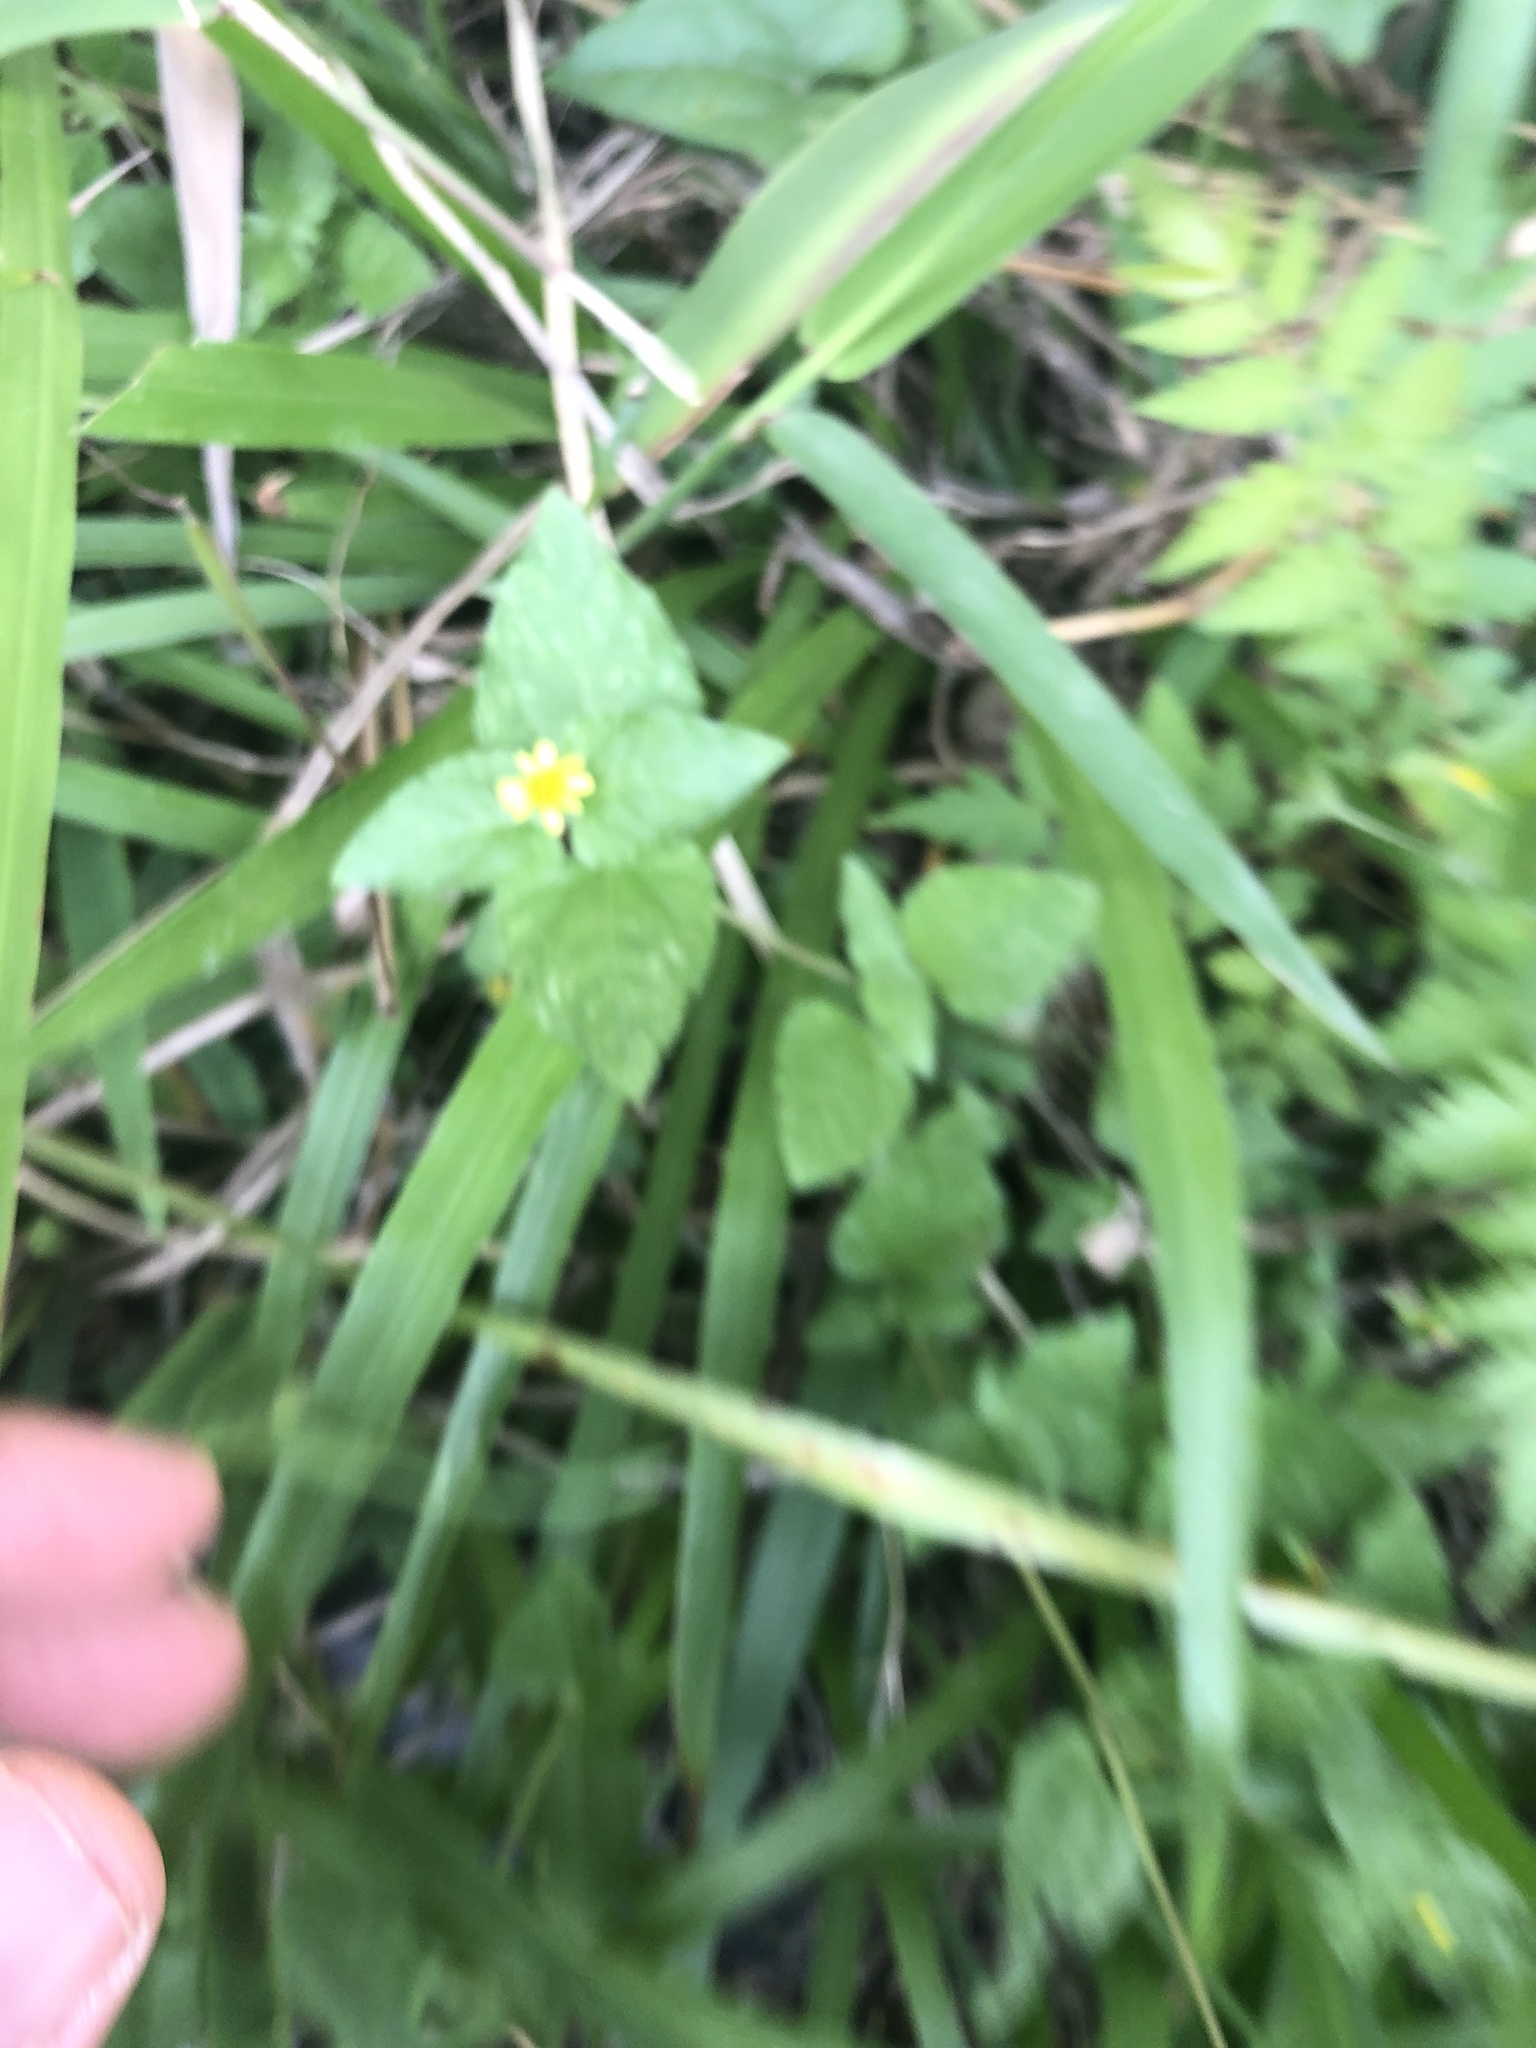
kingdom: Plantae
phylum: Tracheophyta
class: Magnoliopsida
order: Asterales
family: Asteraceae
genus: Calyptocarpus
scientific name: Calyptocarpus vialis
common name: Straggler daisy
